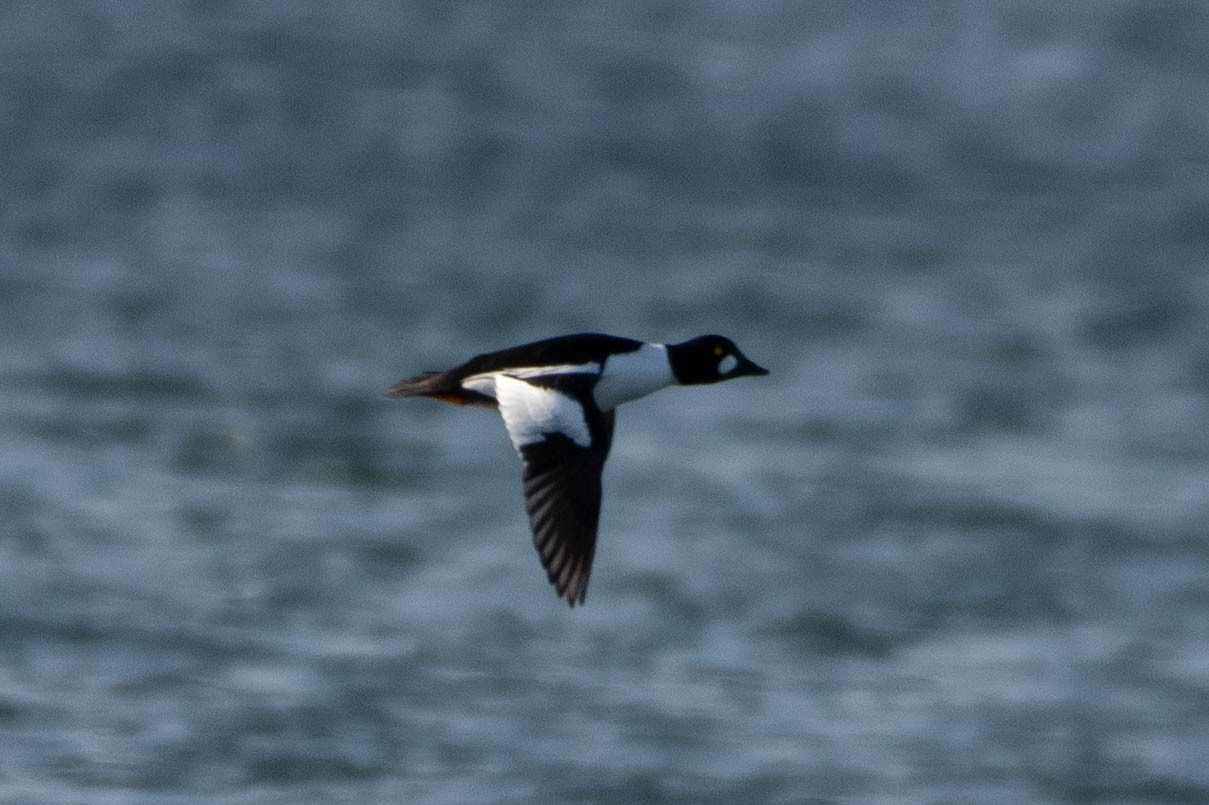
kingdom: Animalia
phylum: Chordata
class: Aves
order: Anseriformes
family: Anatidae
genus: Bucephala
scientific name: Bucephala clangula
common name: Common goldeneye
